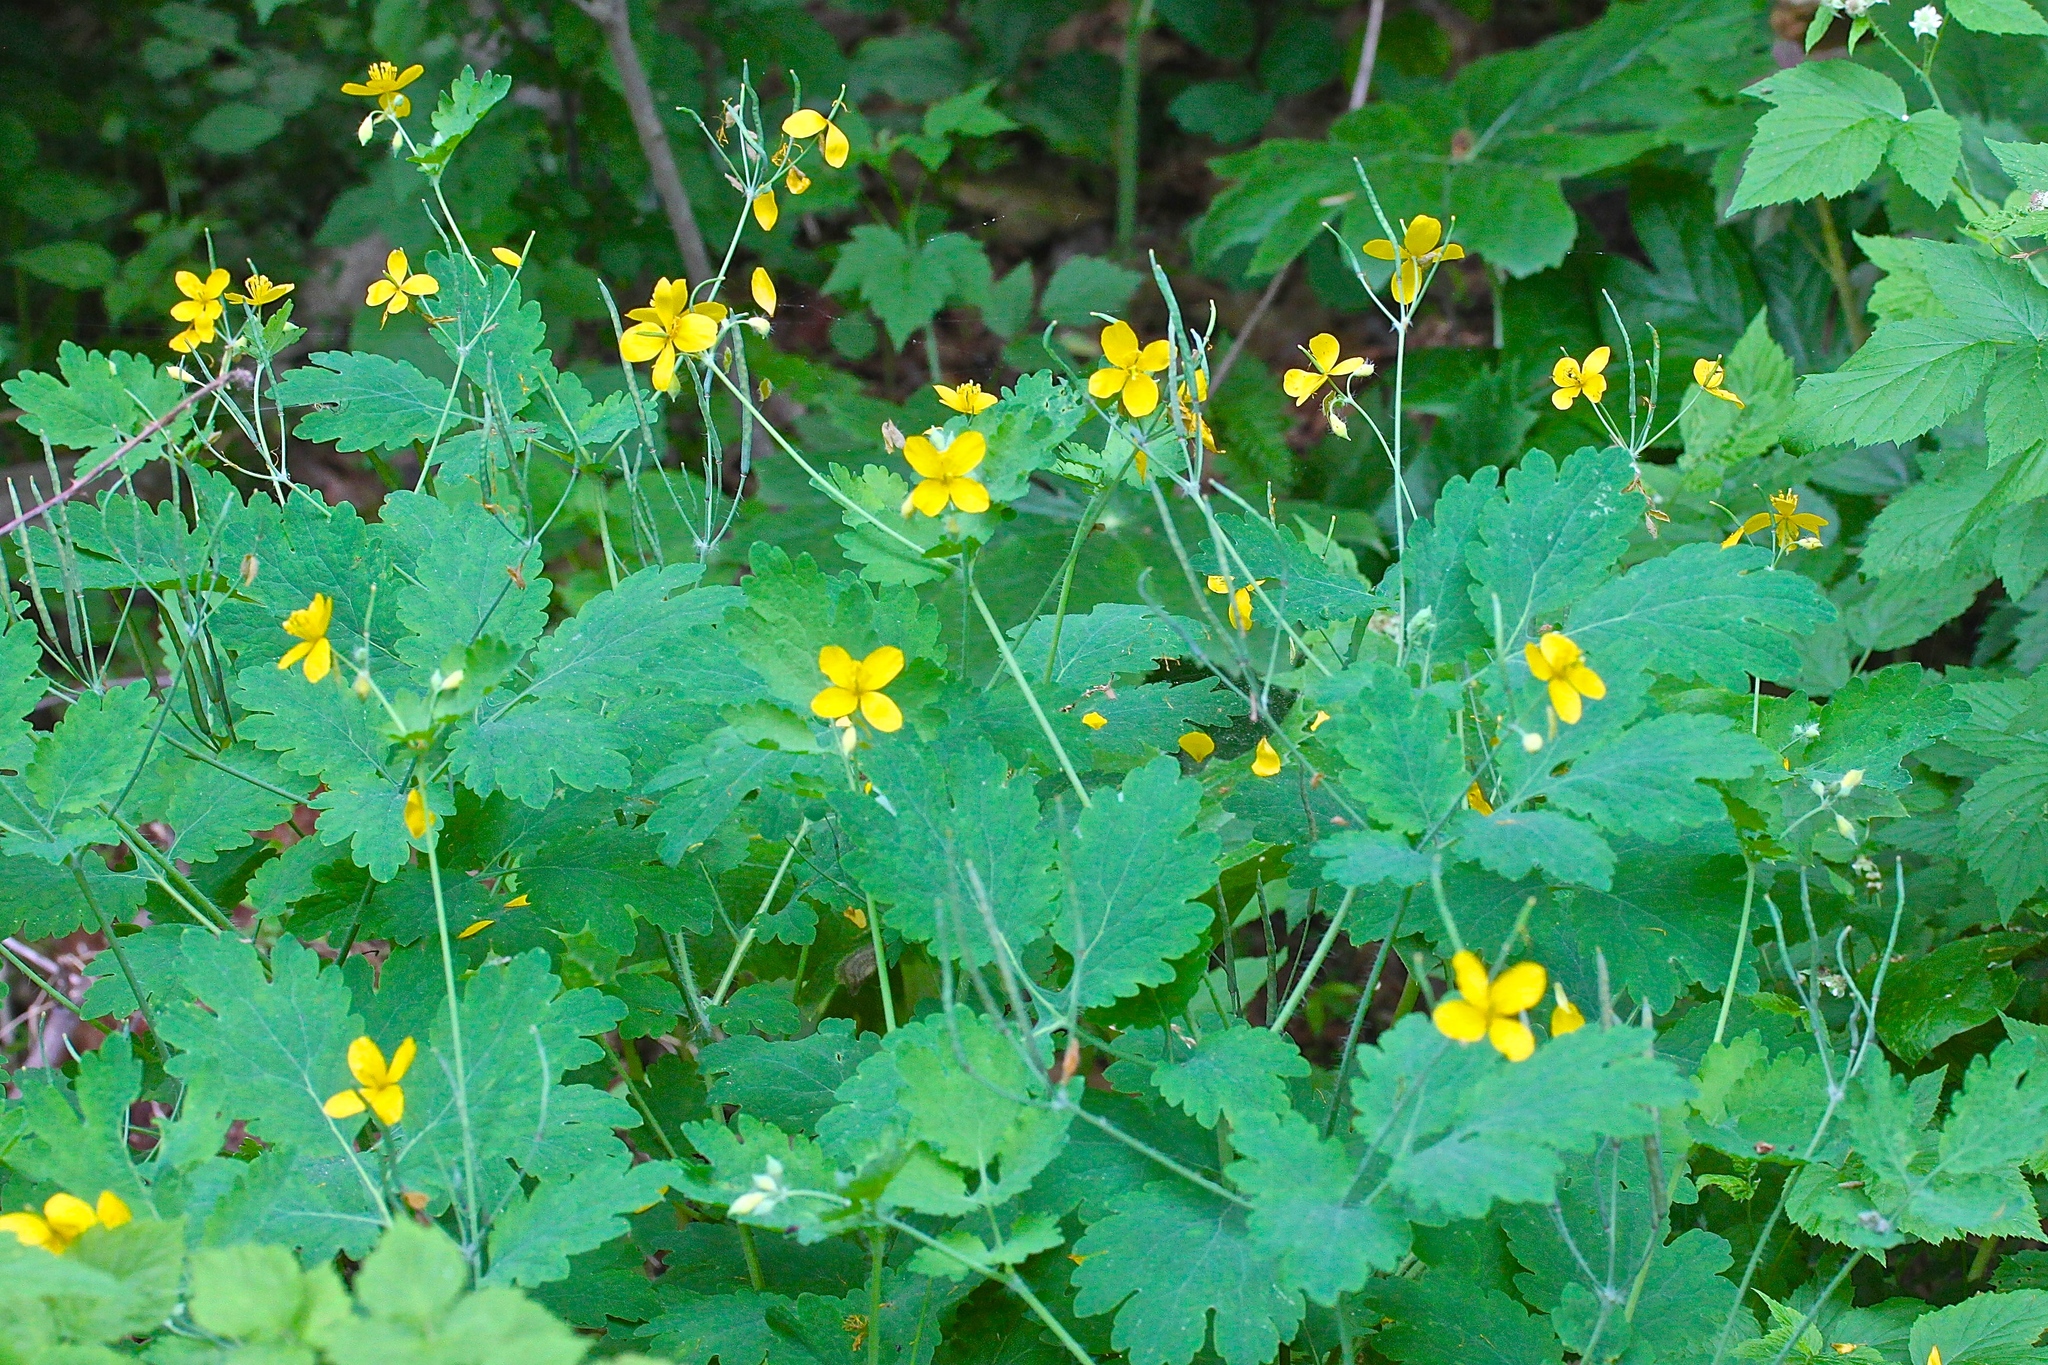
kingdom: Plantae
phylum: Tracheophyta
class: Magnoliopsida
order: Ranunculales
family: Papaveraceae
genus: Chelidonium
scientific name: Chelidonium majus
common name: Greater celandine
